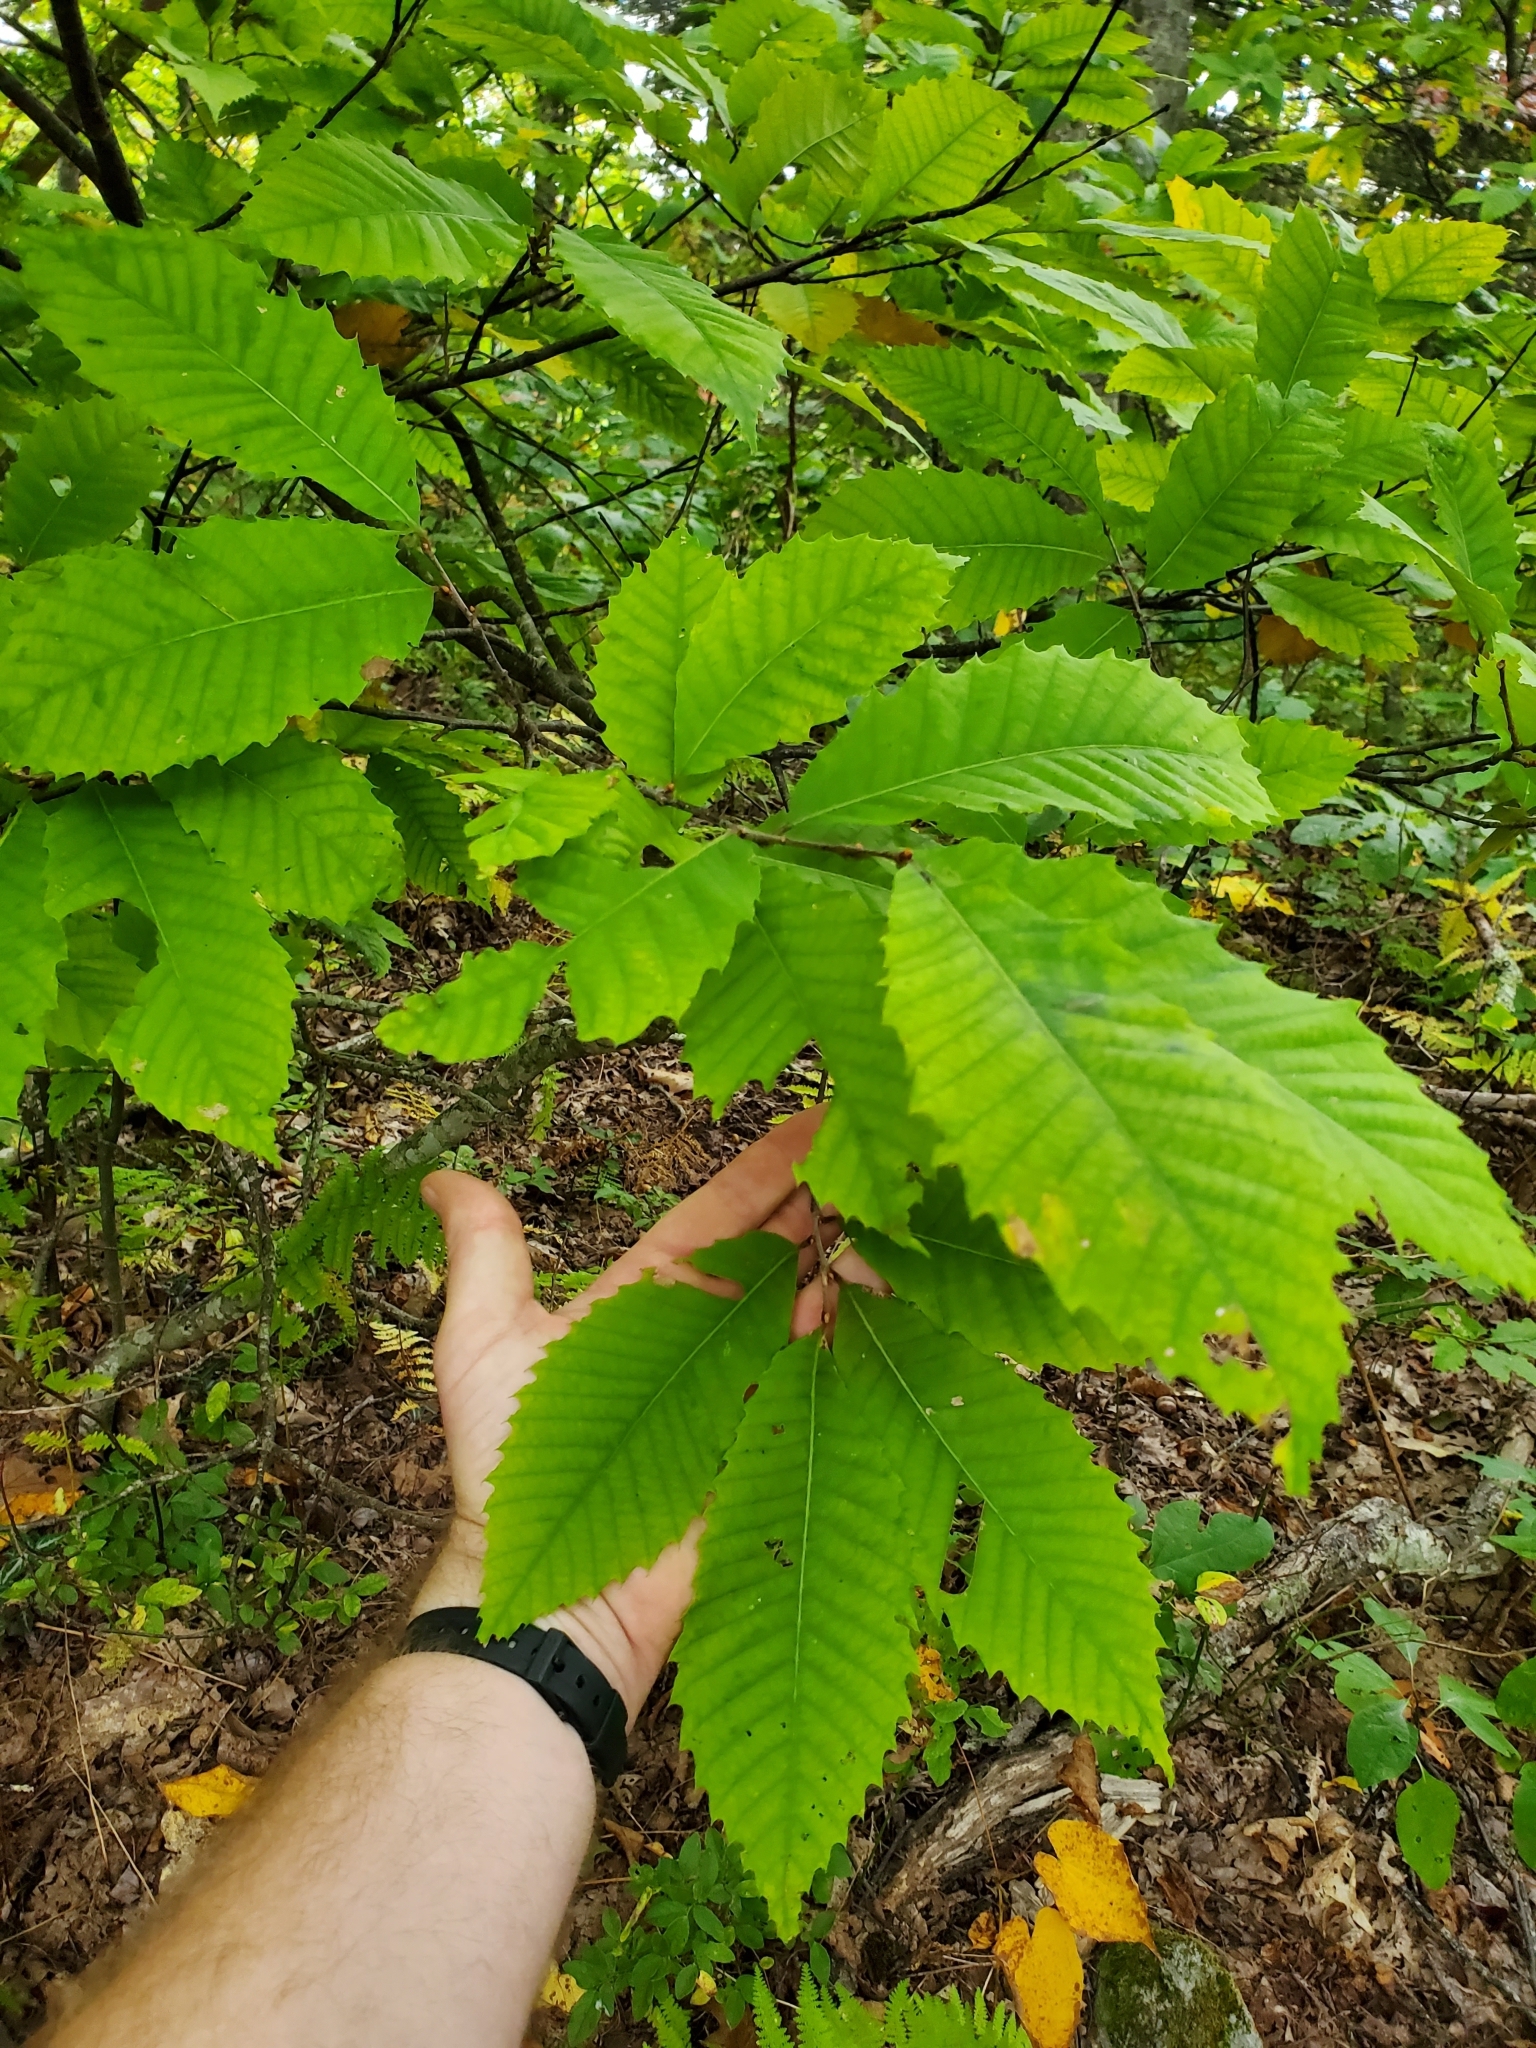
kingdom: Plantae
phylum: Tracheophyta
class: Magnoliopsida
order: Fagales
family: Fagaceae
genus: Castanea
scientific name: Castanea dentata
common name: American chestnut
